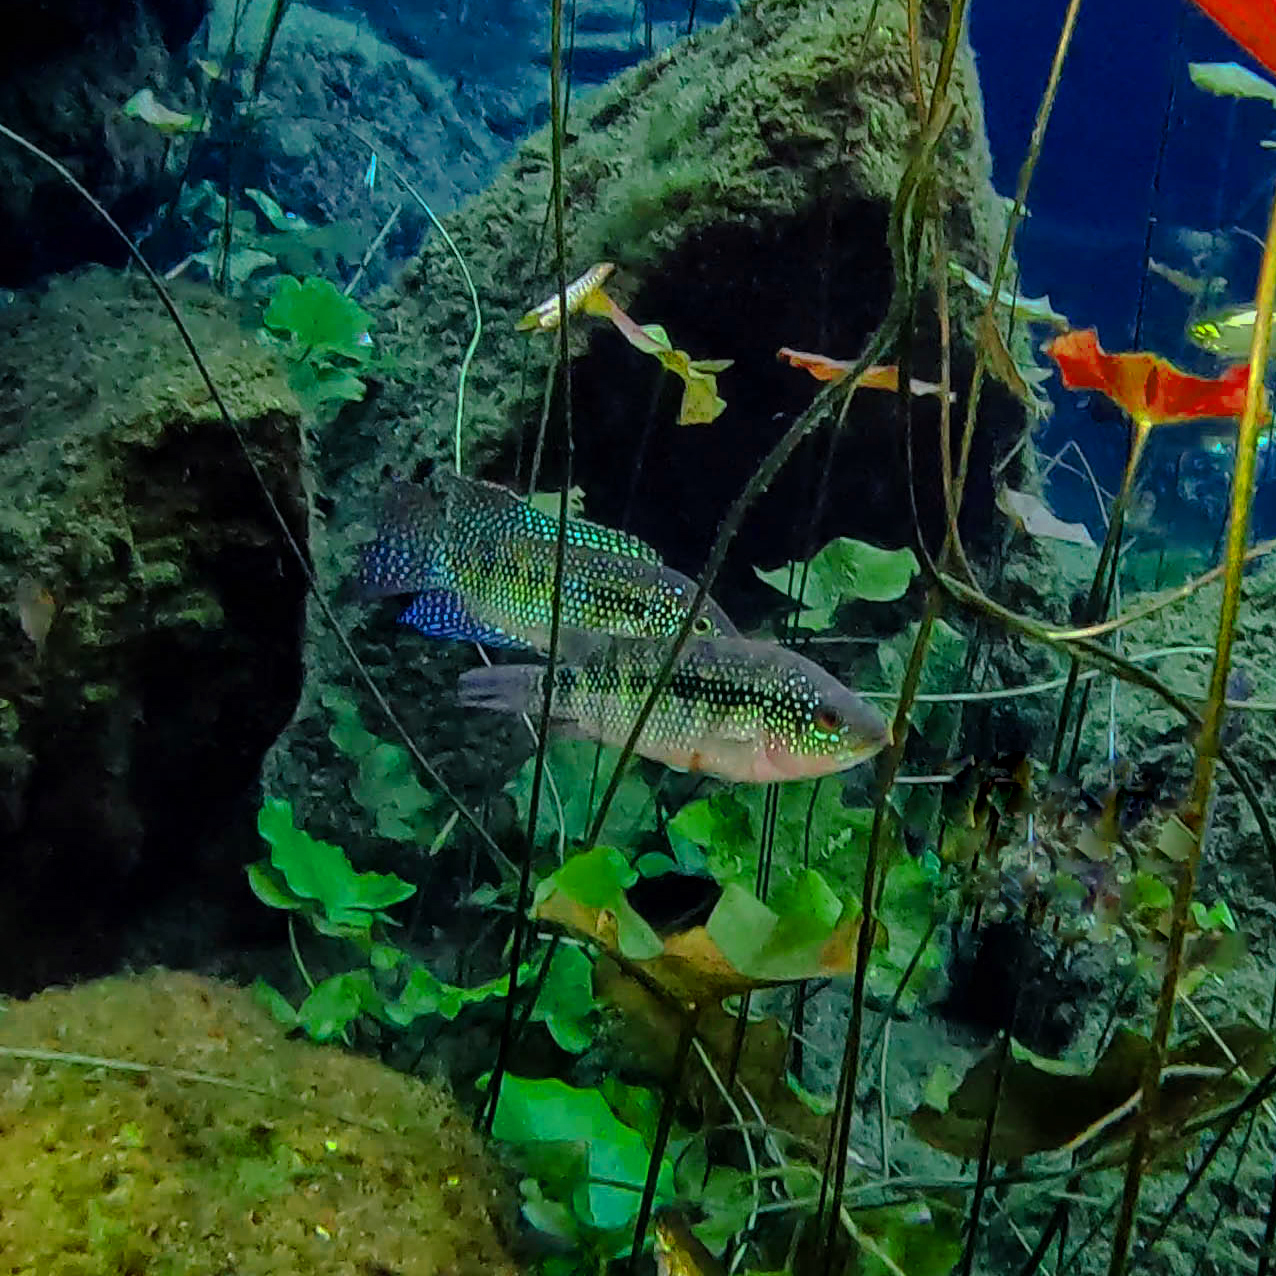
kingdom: Animalia
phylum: Chordata
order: Perciformes
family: Cichlidae
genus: Rocio
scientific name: Rocio octofasciata
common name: Jack dempsey
